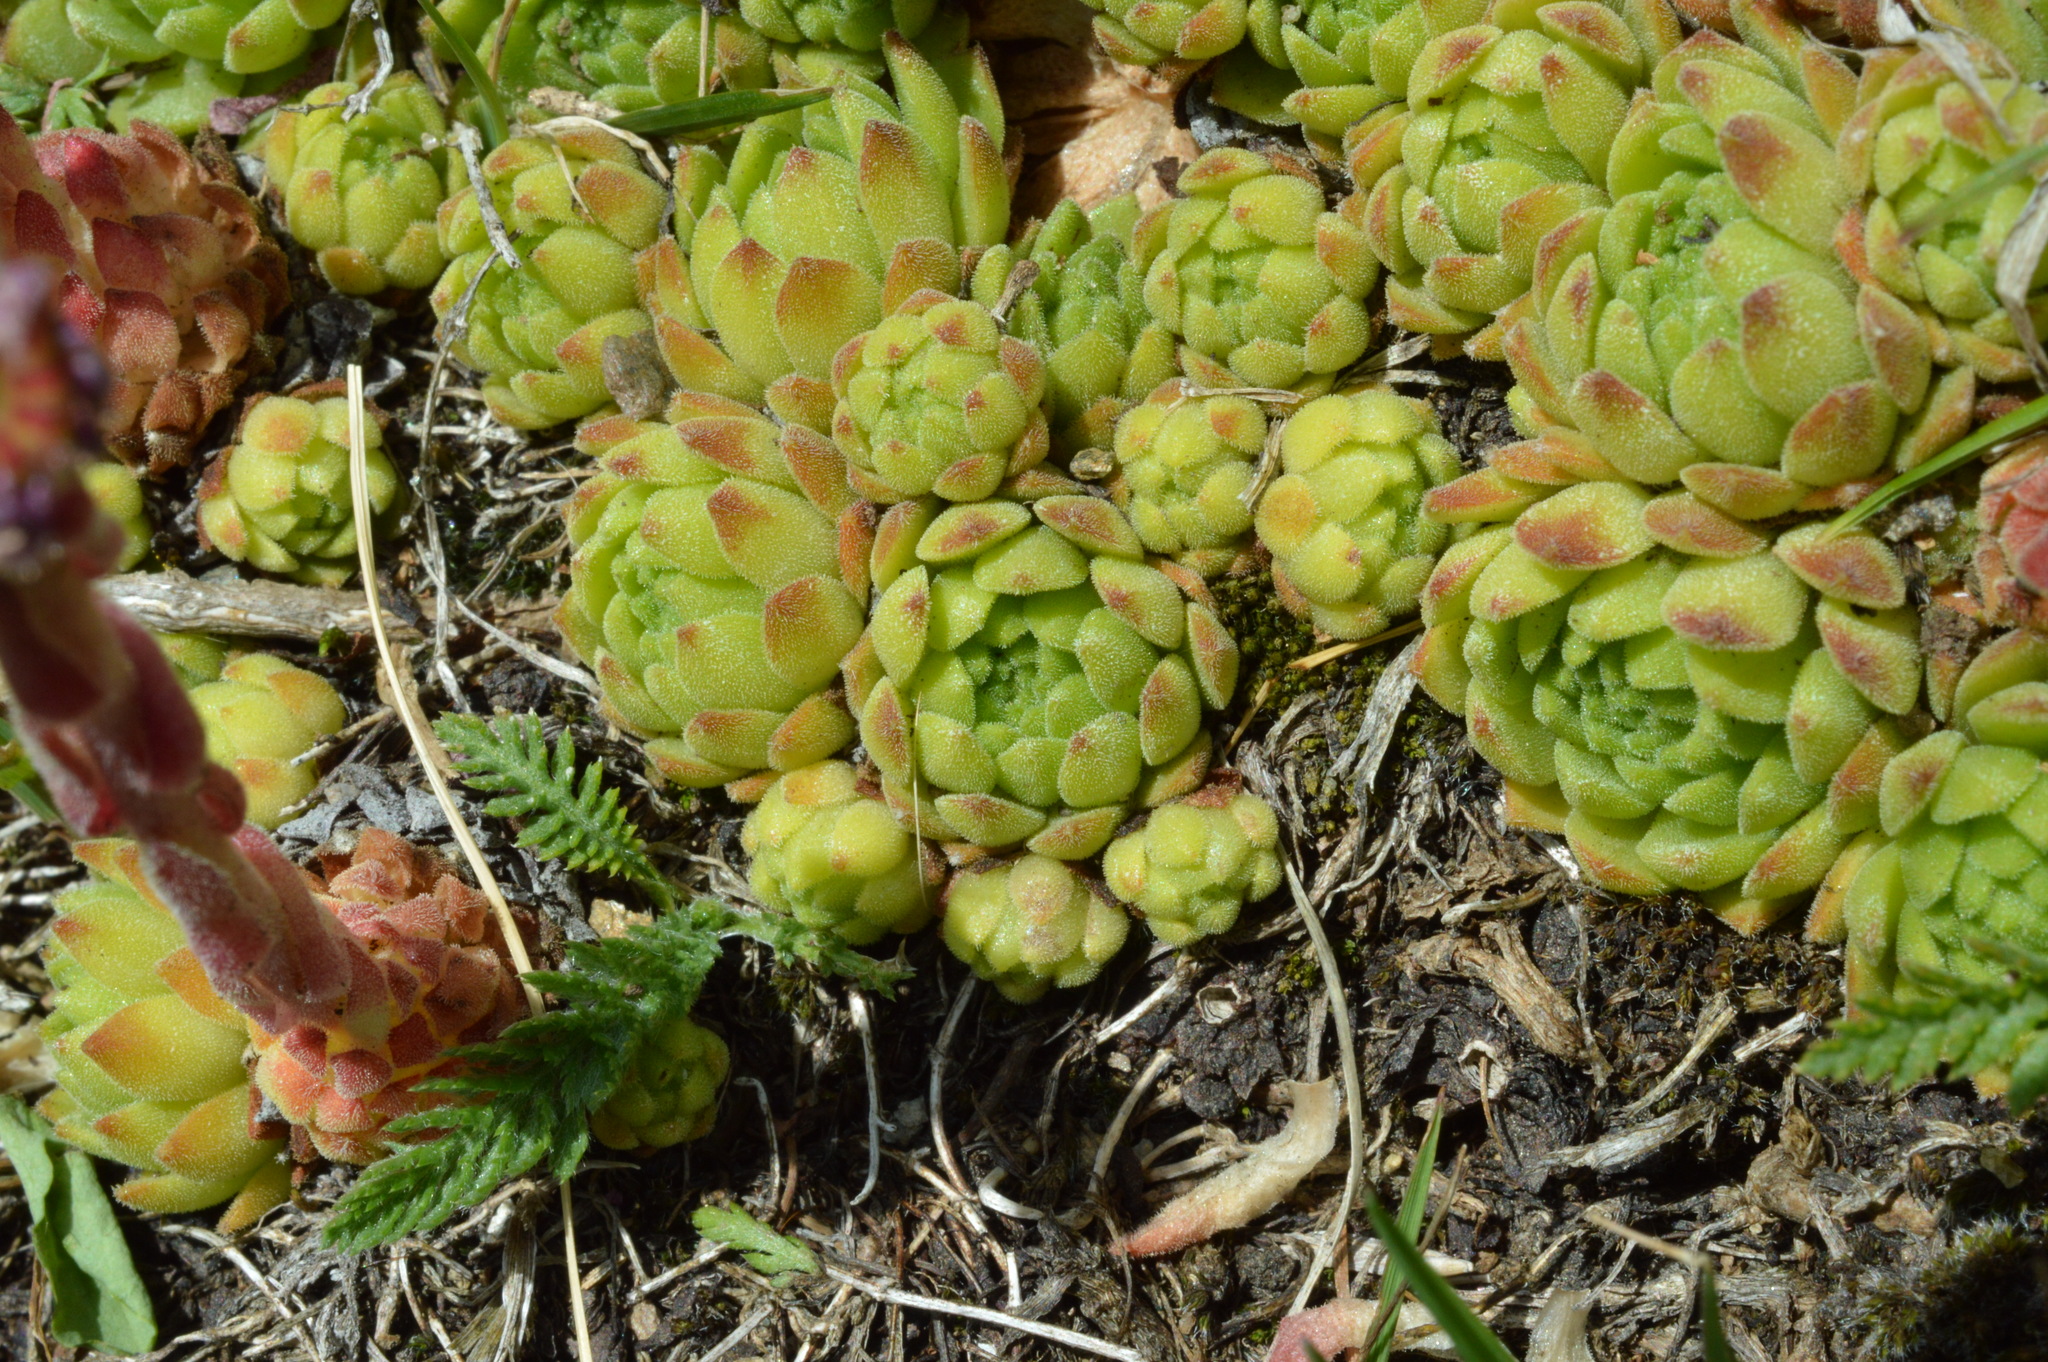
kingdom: Plantae
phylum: Tracheophyta
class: Magnoliopsida
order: Saxifragales
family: Crassulaceae
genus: Sempervivum
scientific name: Sempervivum montanum
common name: Mountain house-leek
